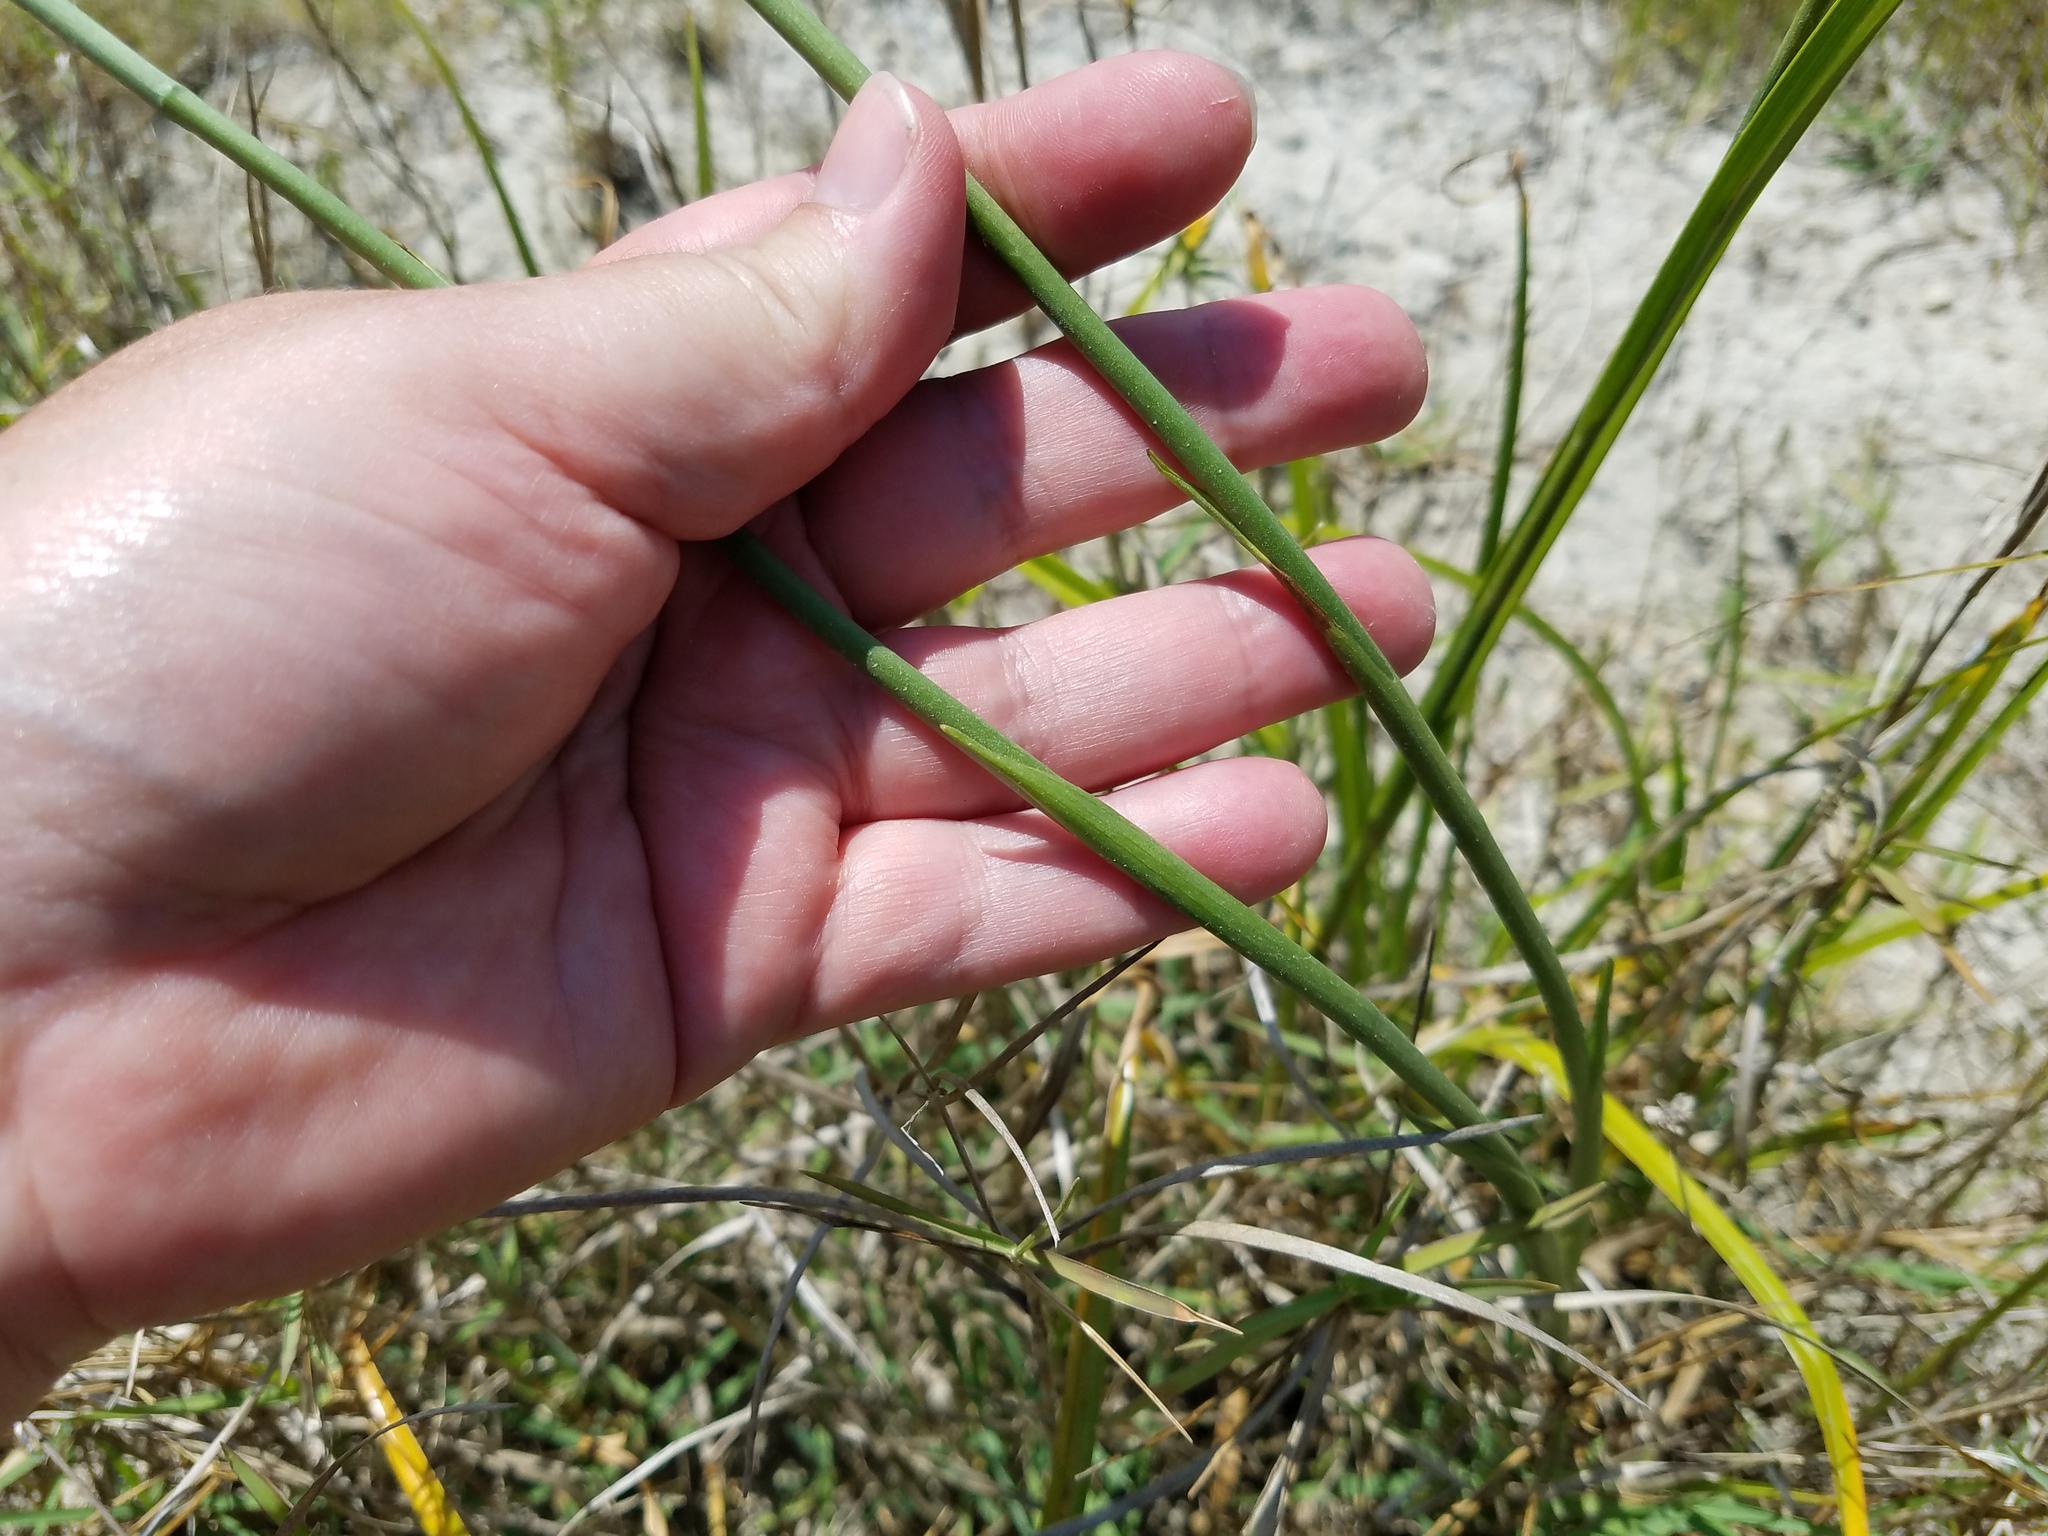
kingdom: Plantae
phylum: Tracheophyta
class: Liliopsida
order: Asparagales
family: Orchidaceae
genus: Spiranthes
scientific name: Spiranthes vernalis
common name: Spring ladies'-tresses
